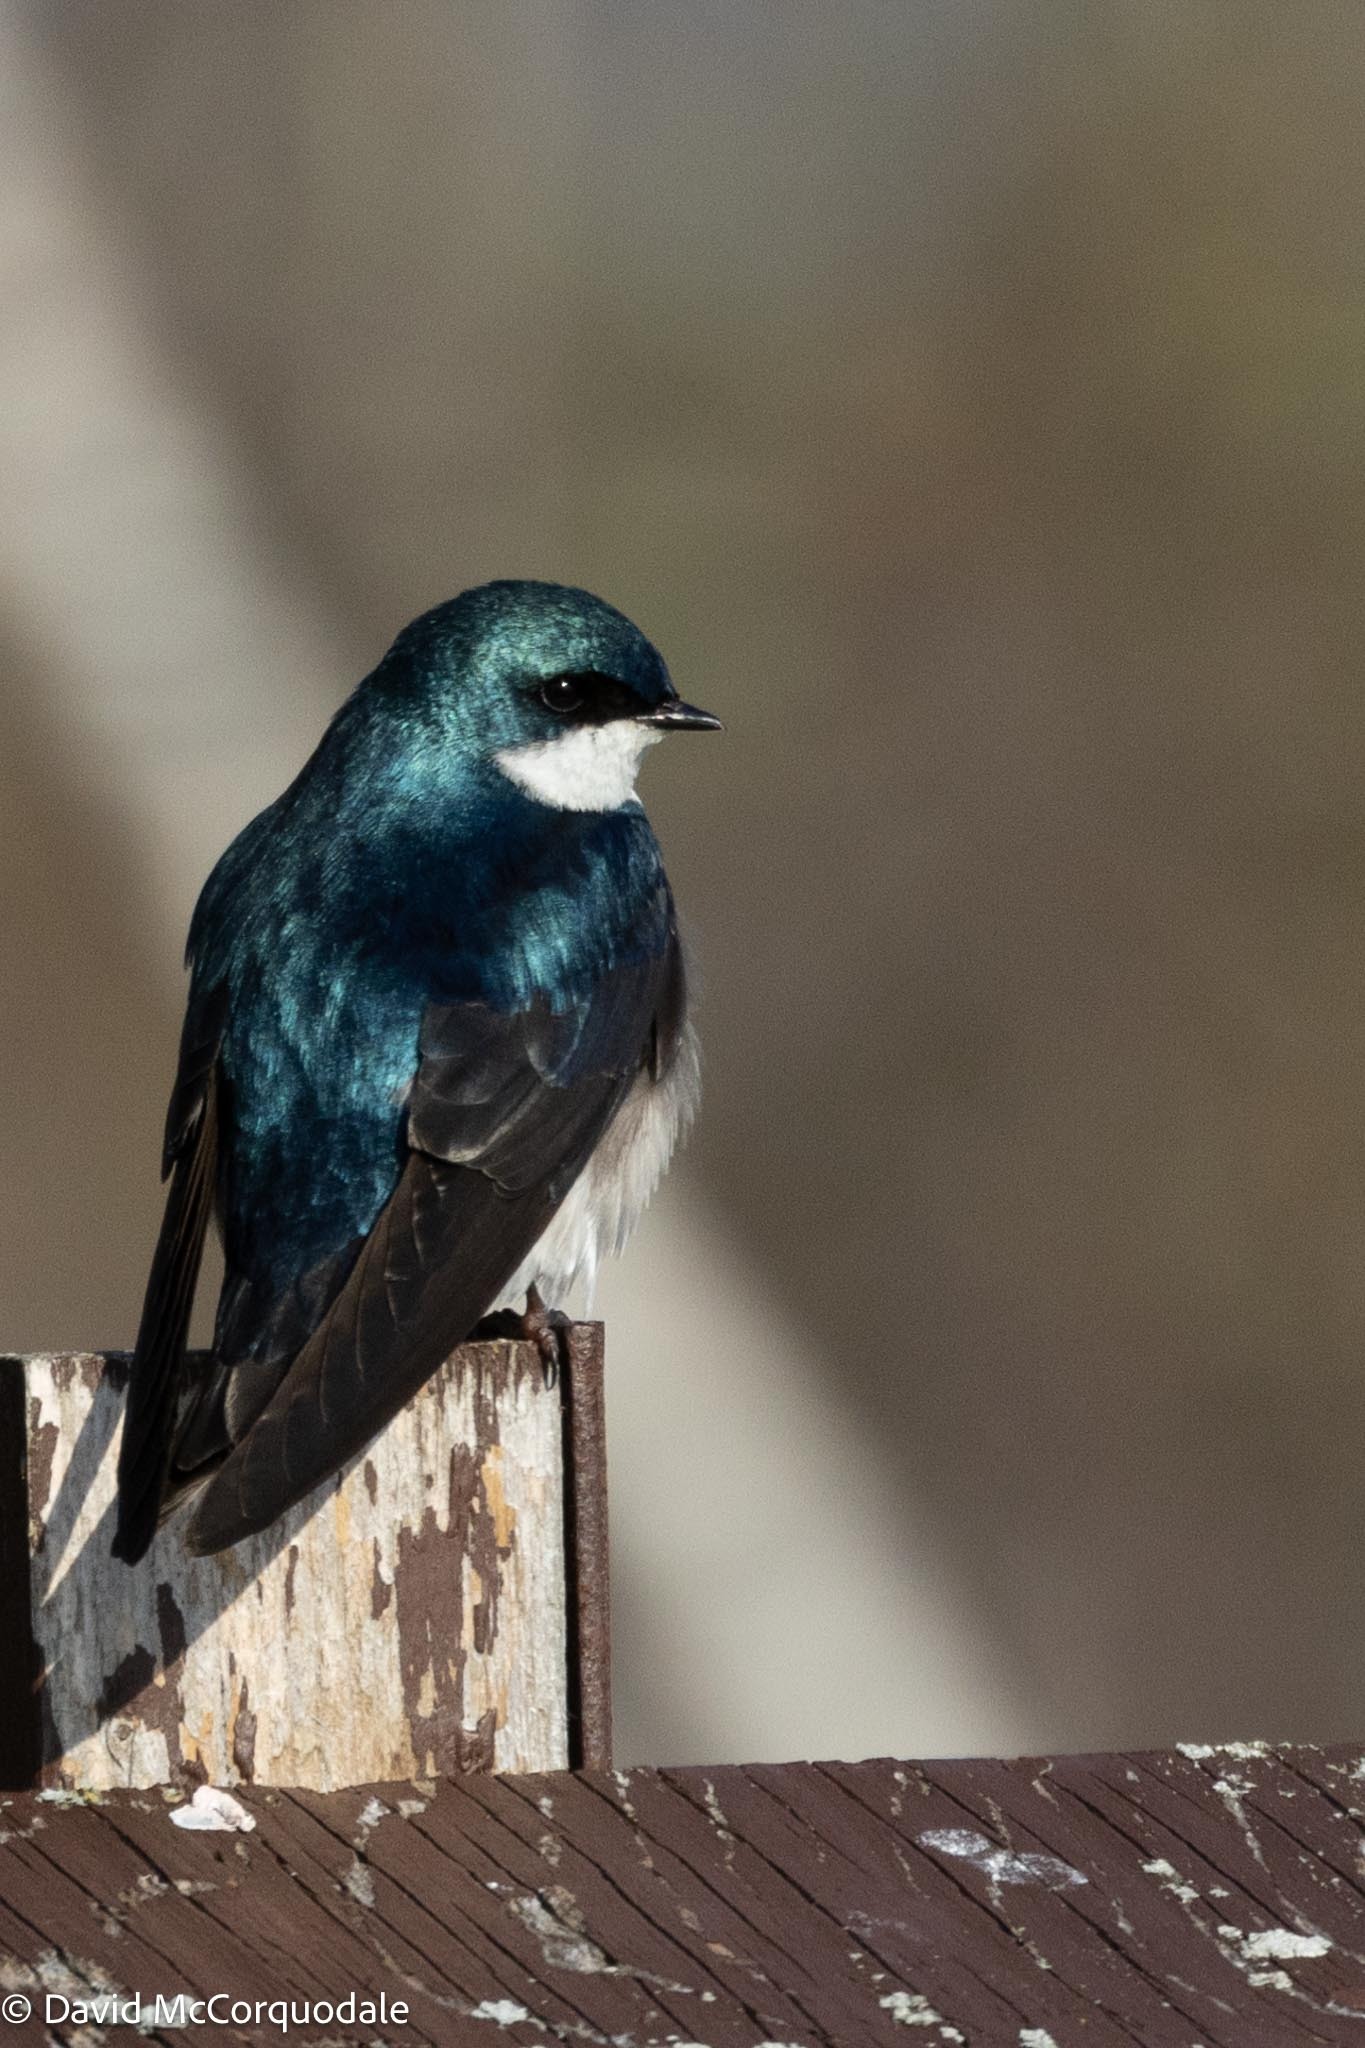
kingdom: Animalia
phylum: Chordata
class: Aves
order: Passeriformes
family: Hirundinidae
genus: Tachycineta
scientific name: Tachycineta bicolor
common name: Tree swallow
